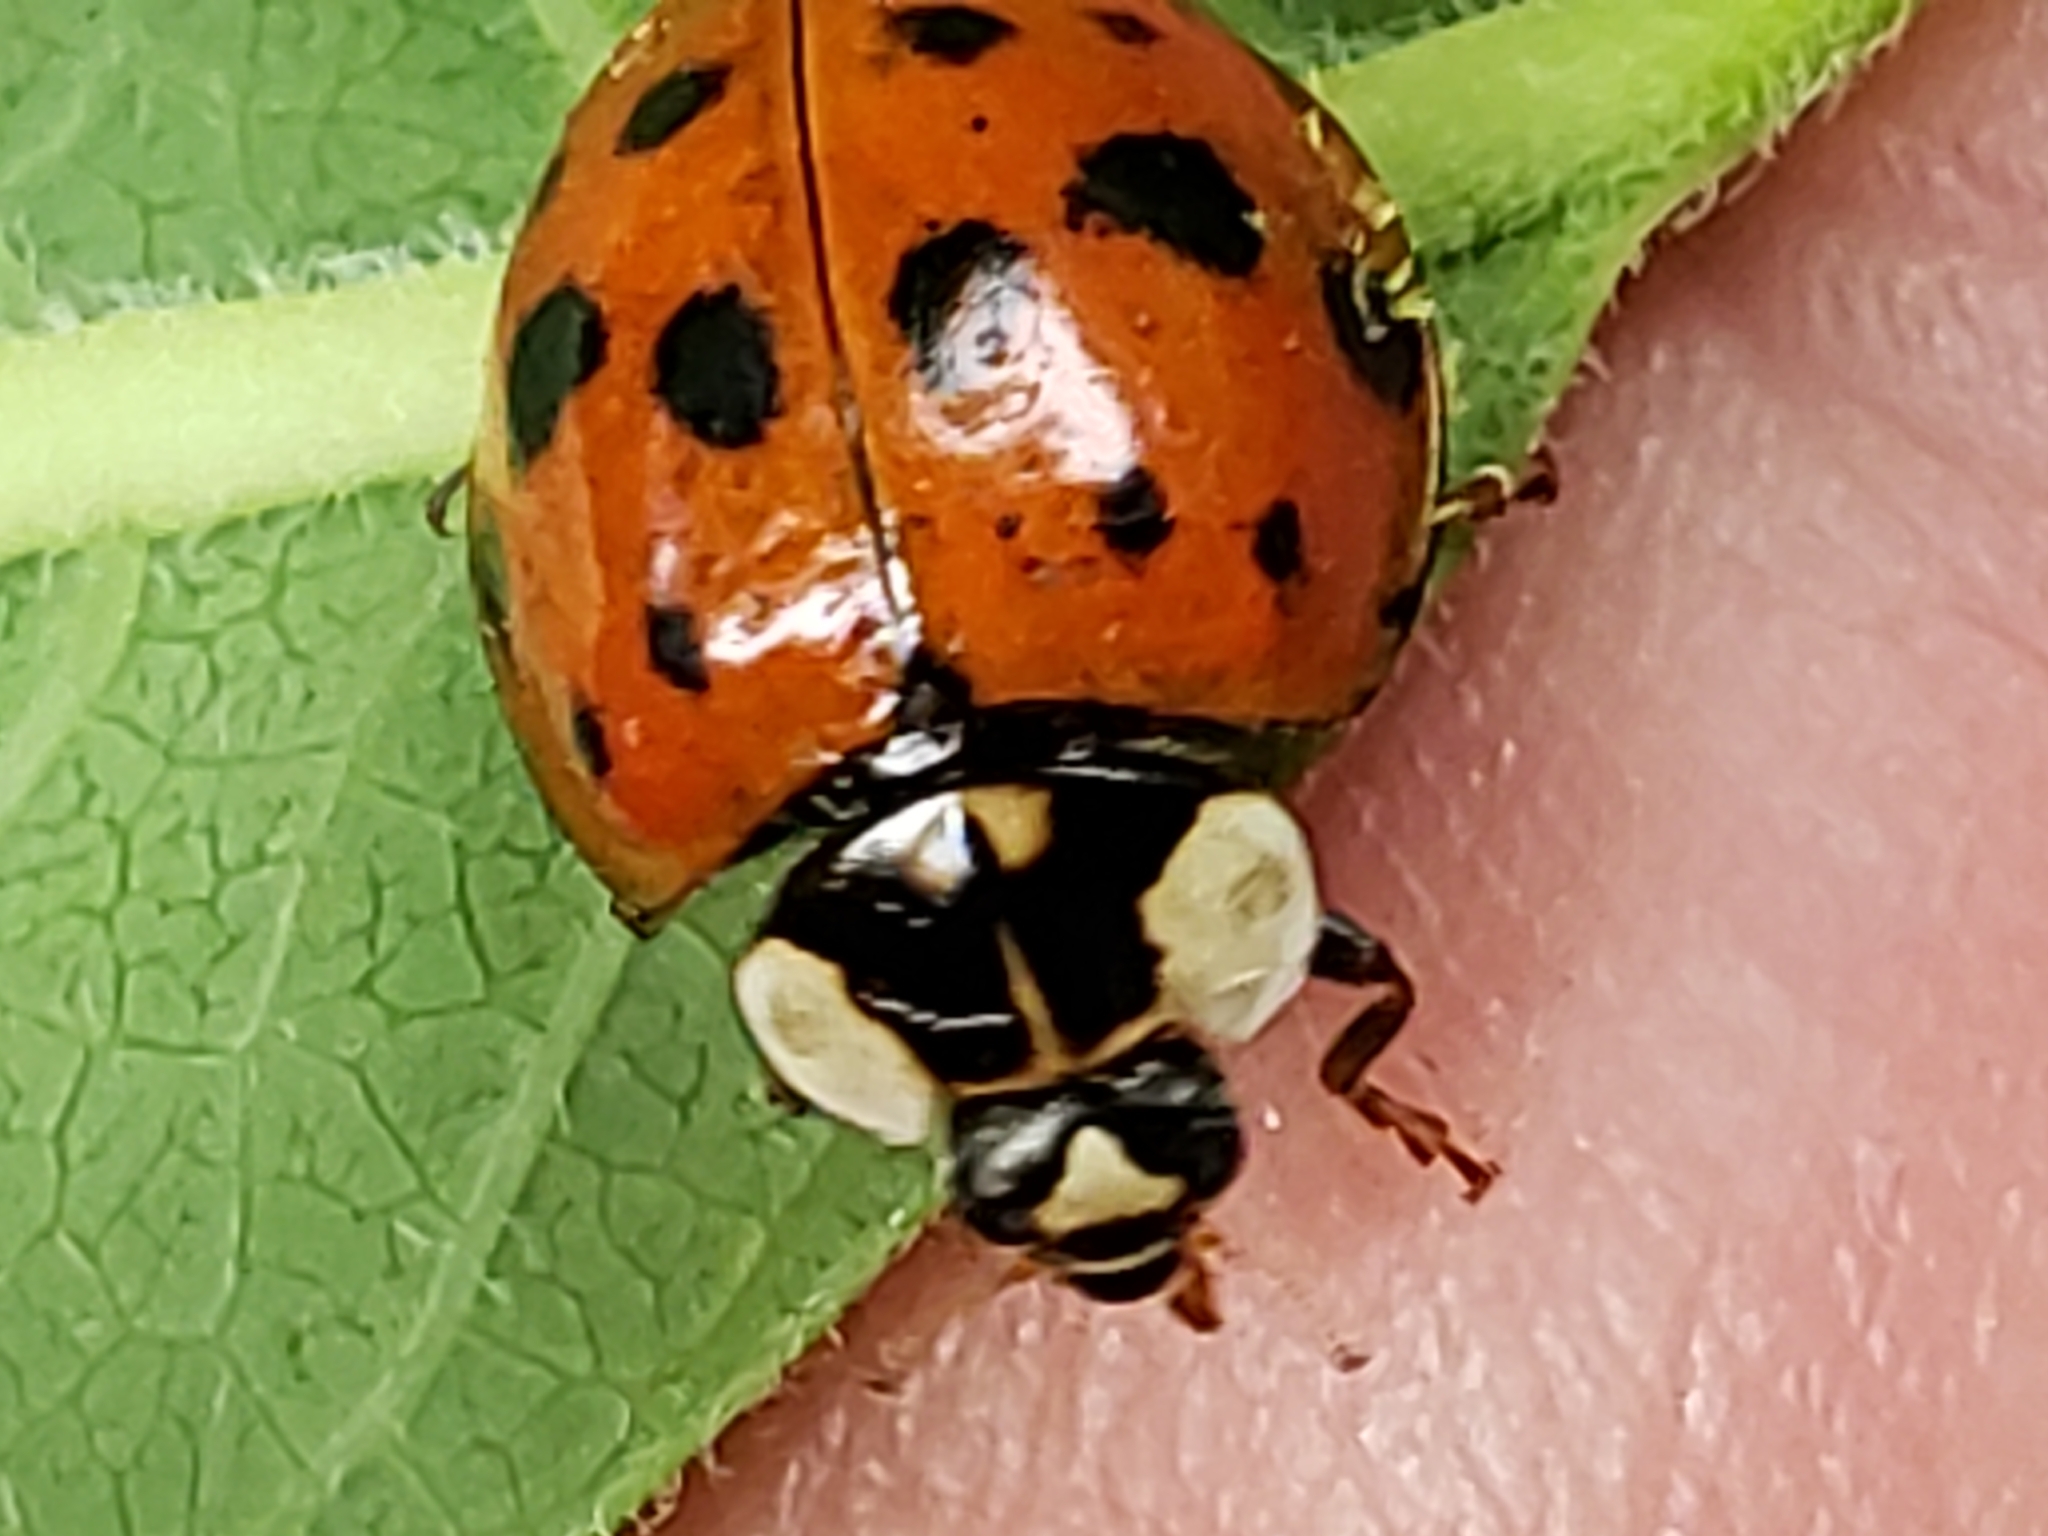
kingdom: Animalia
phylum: Arthropoda
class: Insecta
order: Coleoptera
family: Coccinellidae
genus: Harmonia
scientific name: Harmonia axyridis
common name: Harlequin ladybird
